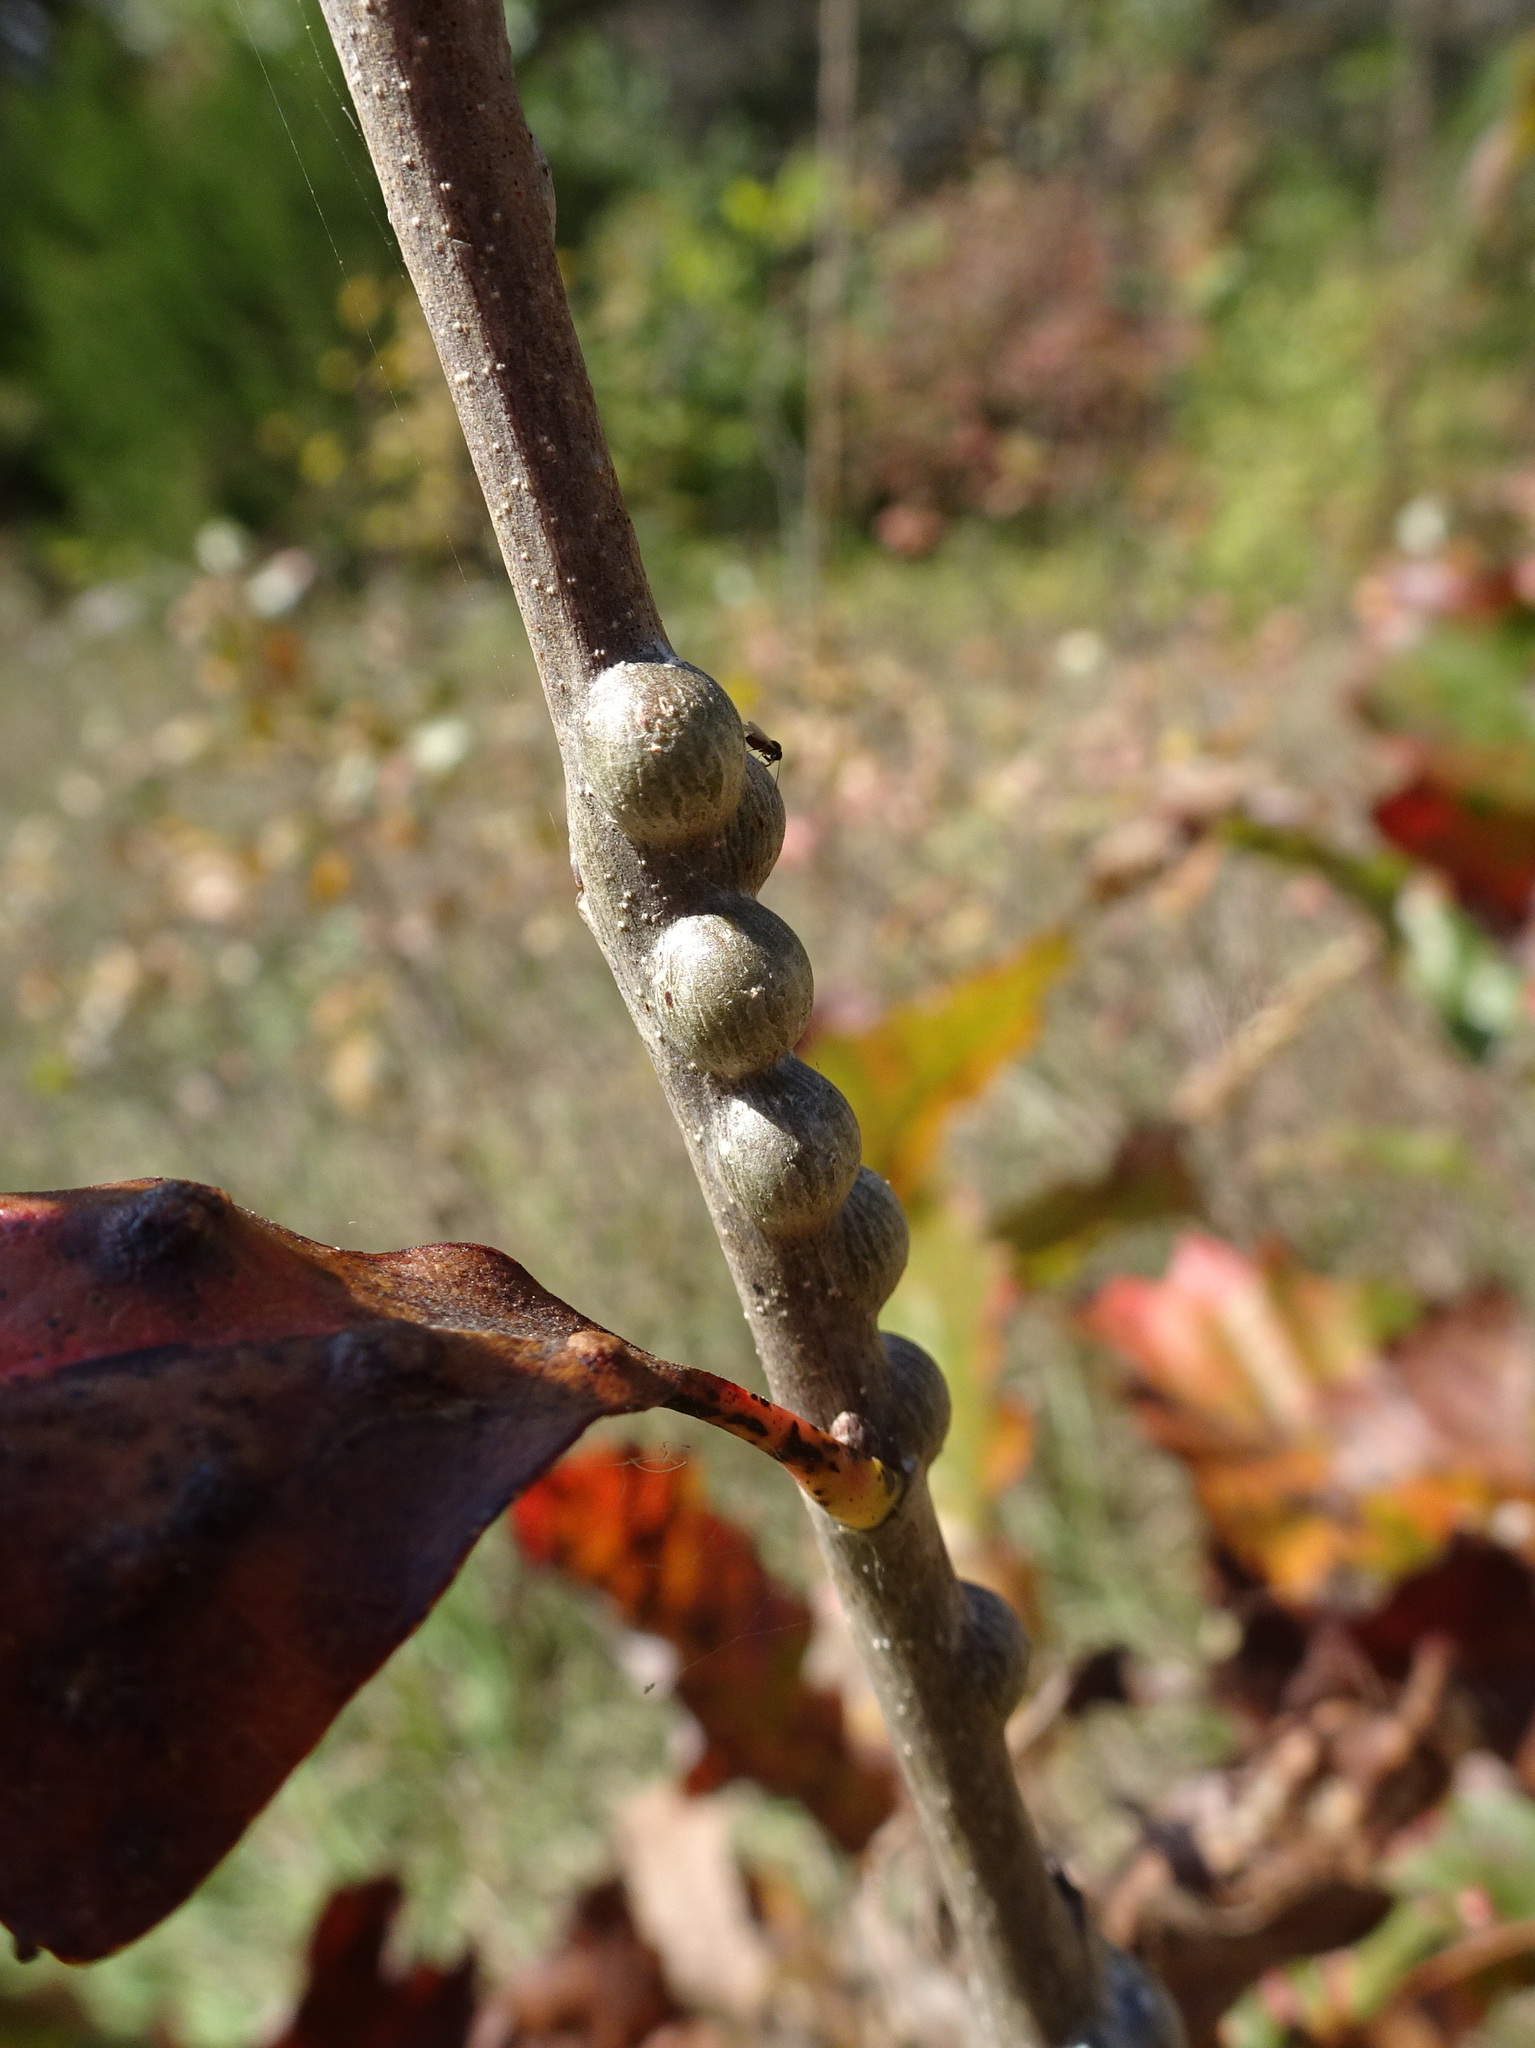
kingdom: Animalia
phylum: Arthropoda
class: Insecta
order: Hymenoptera
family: Cynipidae
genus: Neuroterus
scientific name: Neuroterus
